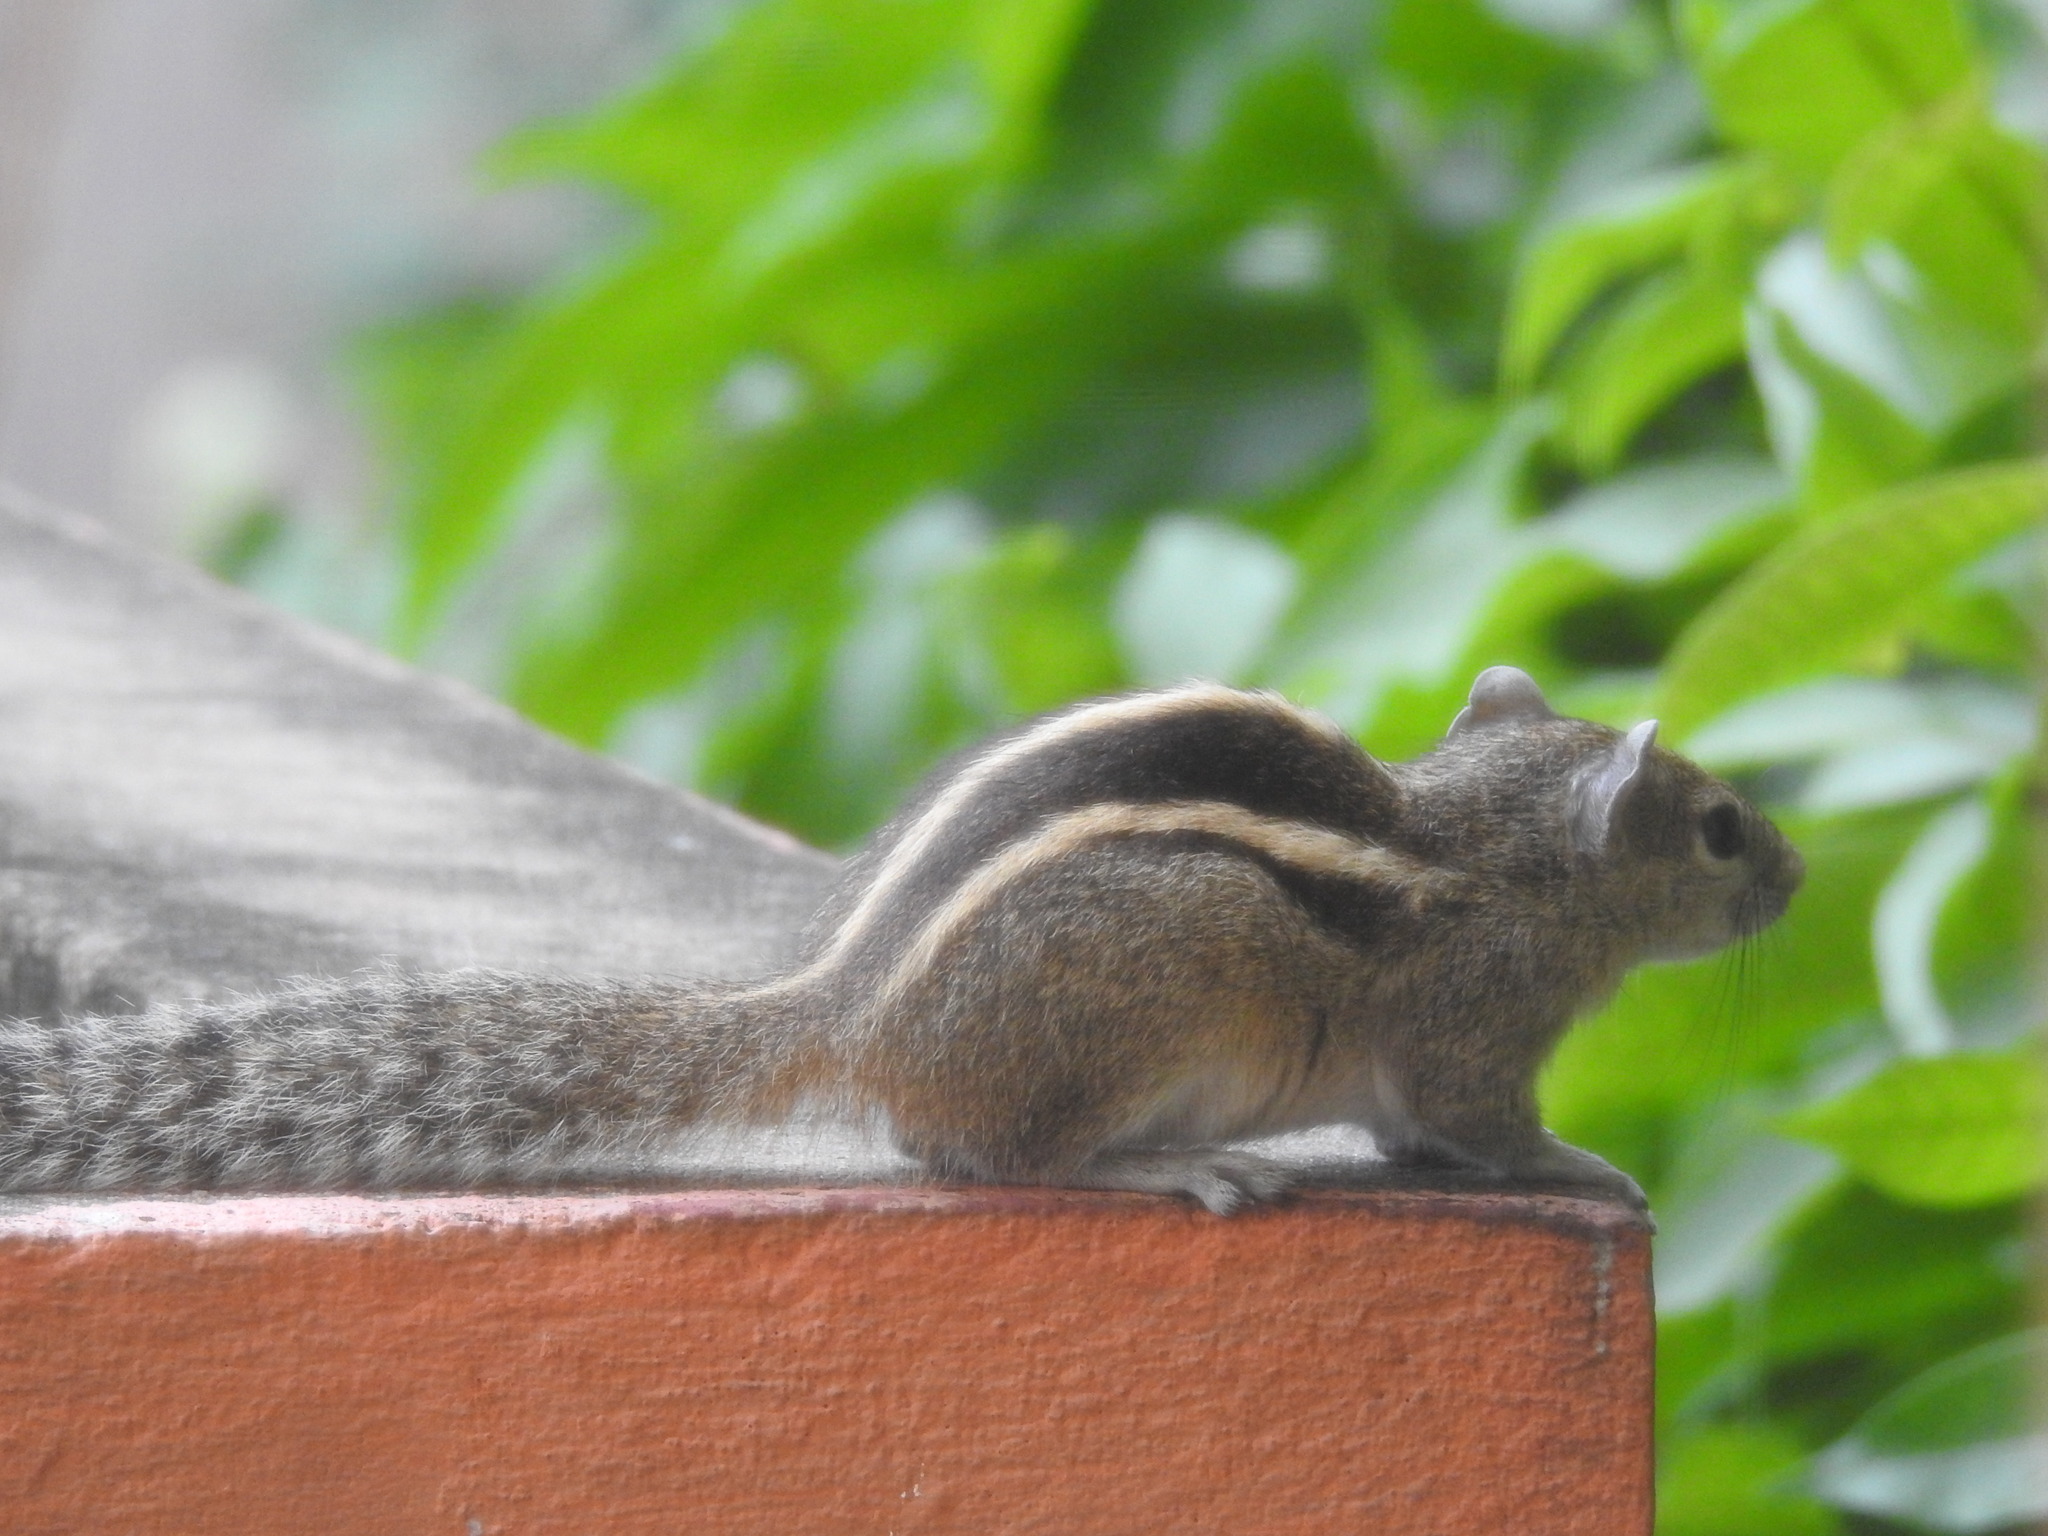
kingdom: Animalia
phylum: Chordata
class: Mammalia
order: Rodentia
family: Sciuridae
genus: Funambulus
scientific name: Funambulus palmarum
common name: Indian palm squirrel
